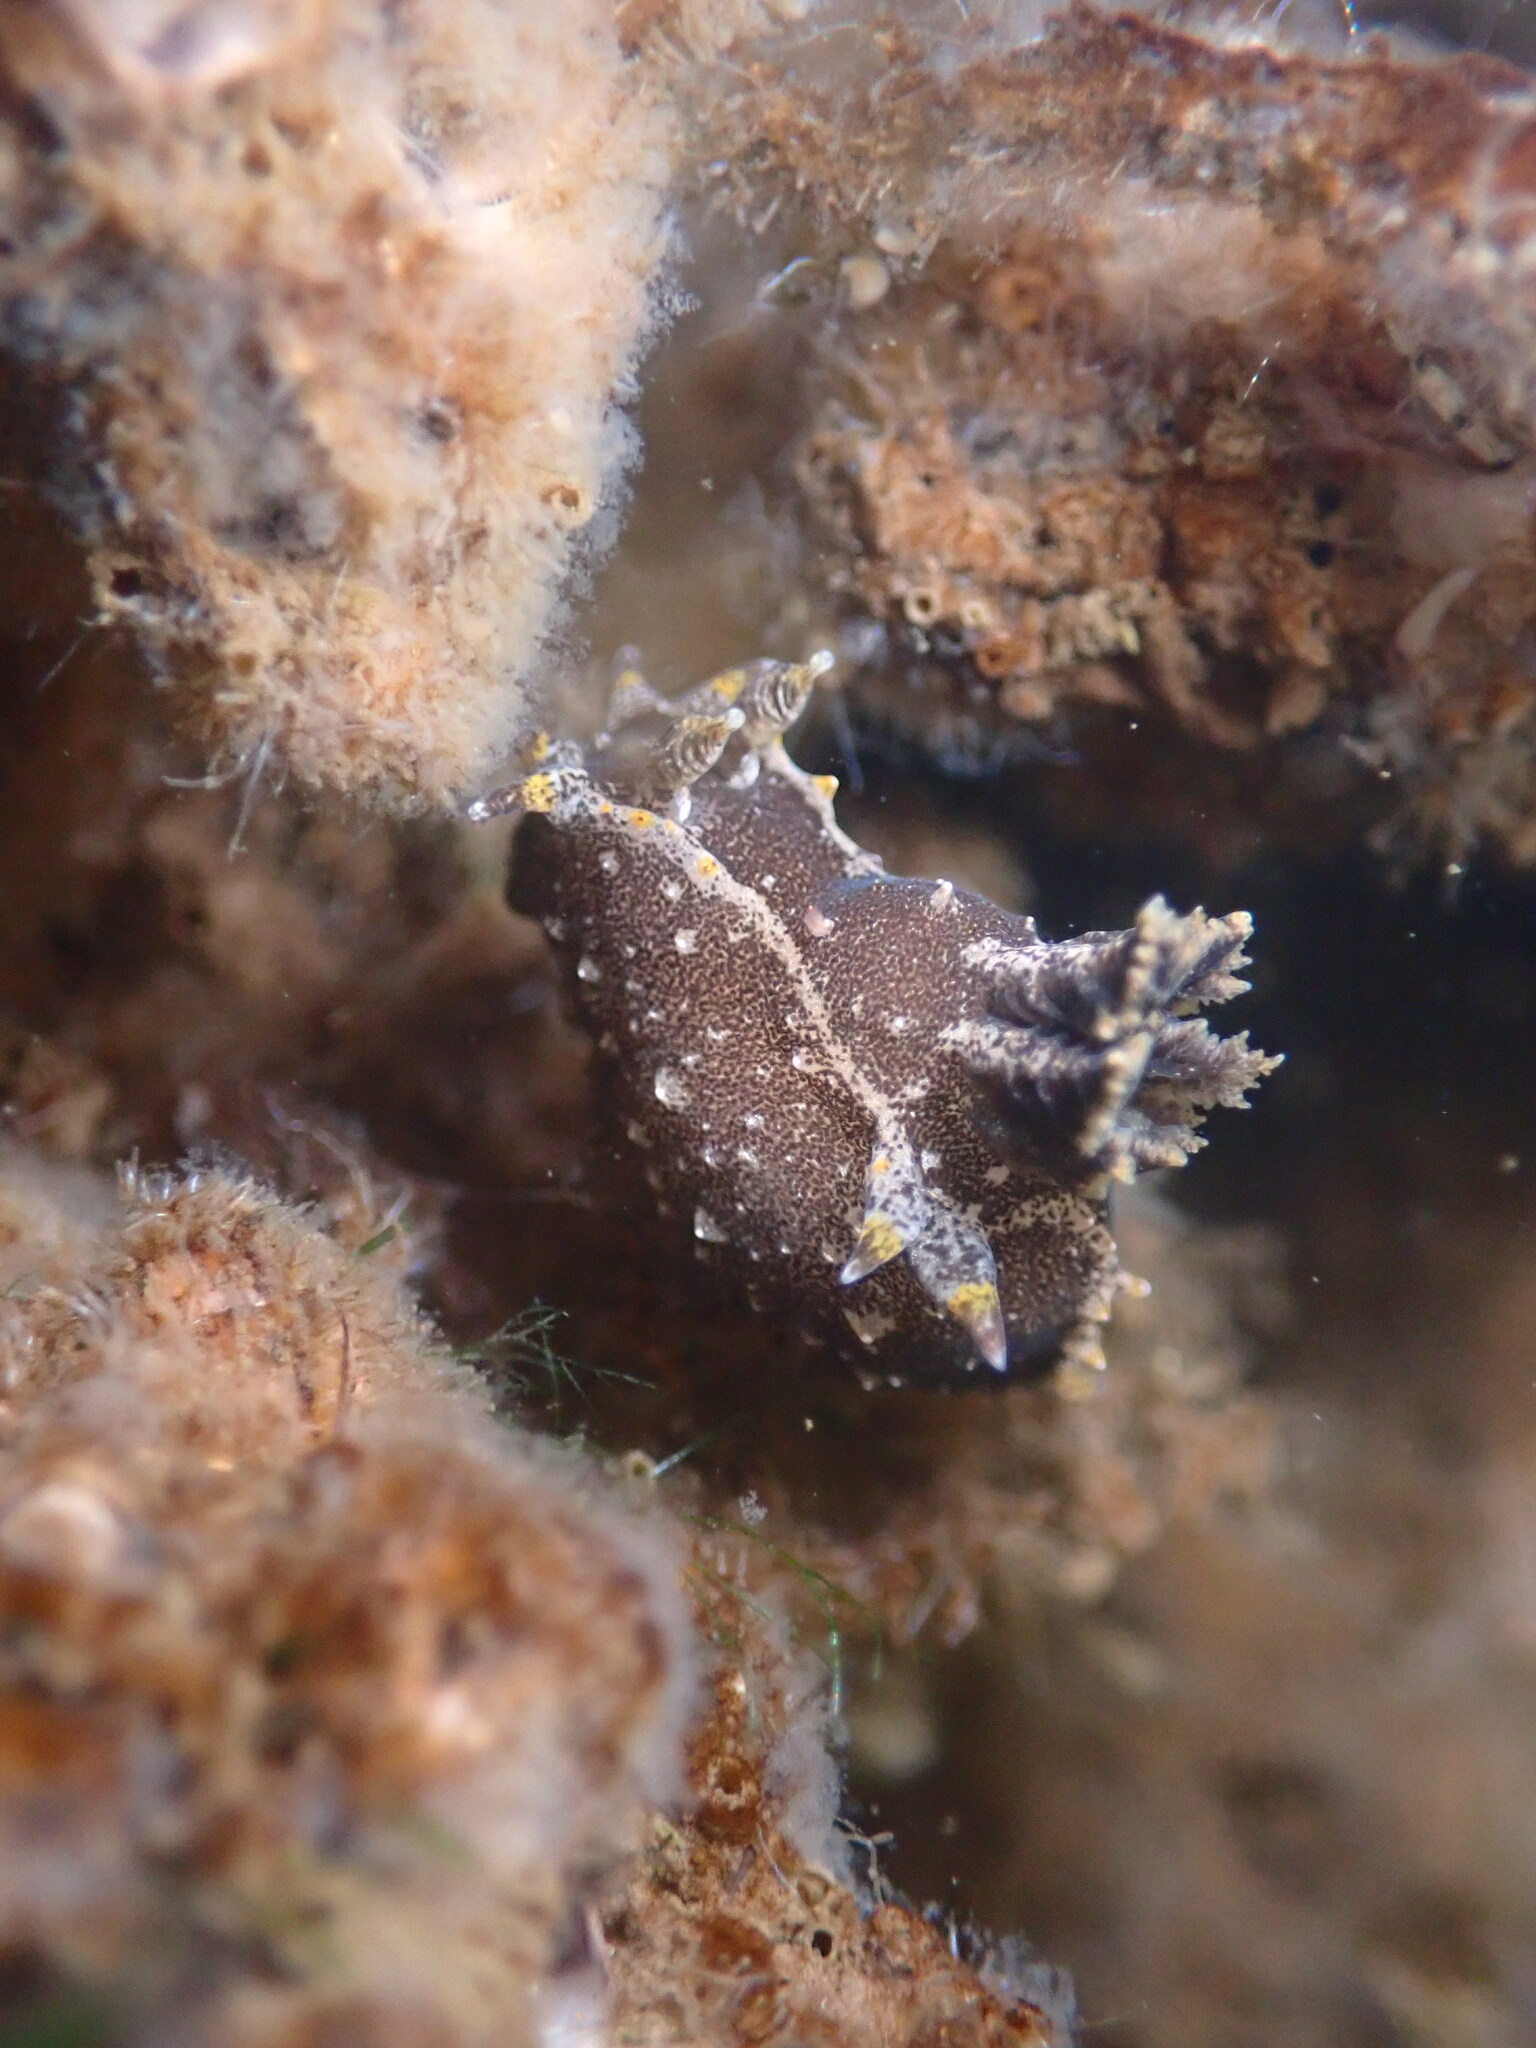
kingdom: Animalia
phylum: Mollusca
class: Gastropoda
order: Nudibranchia
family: Polyceridae
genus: Polycera
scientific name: Polycera hedgpethi
